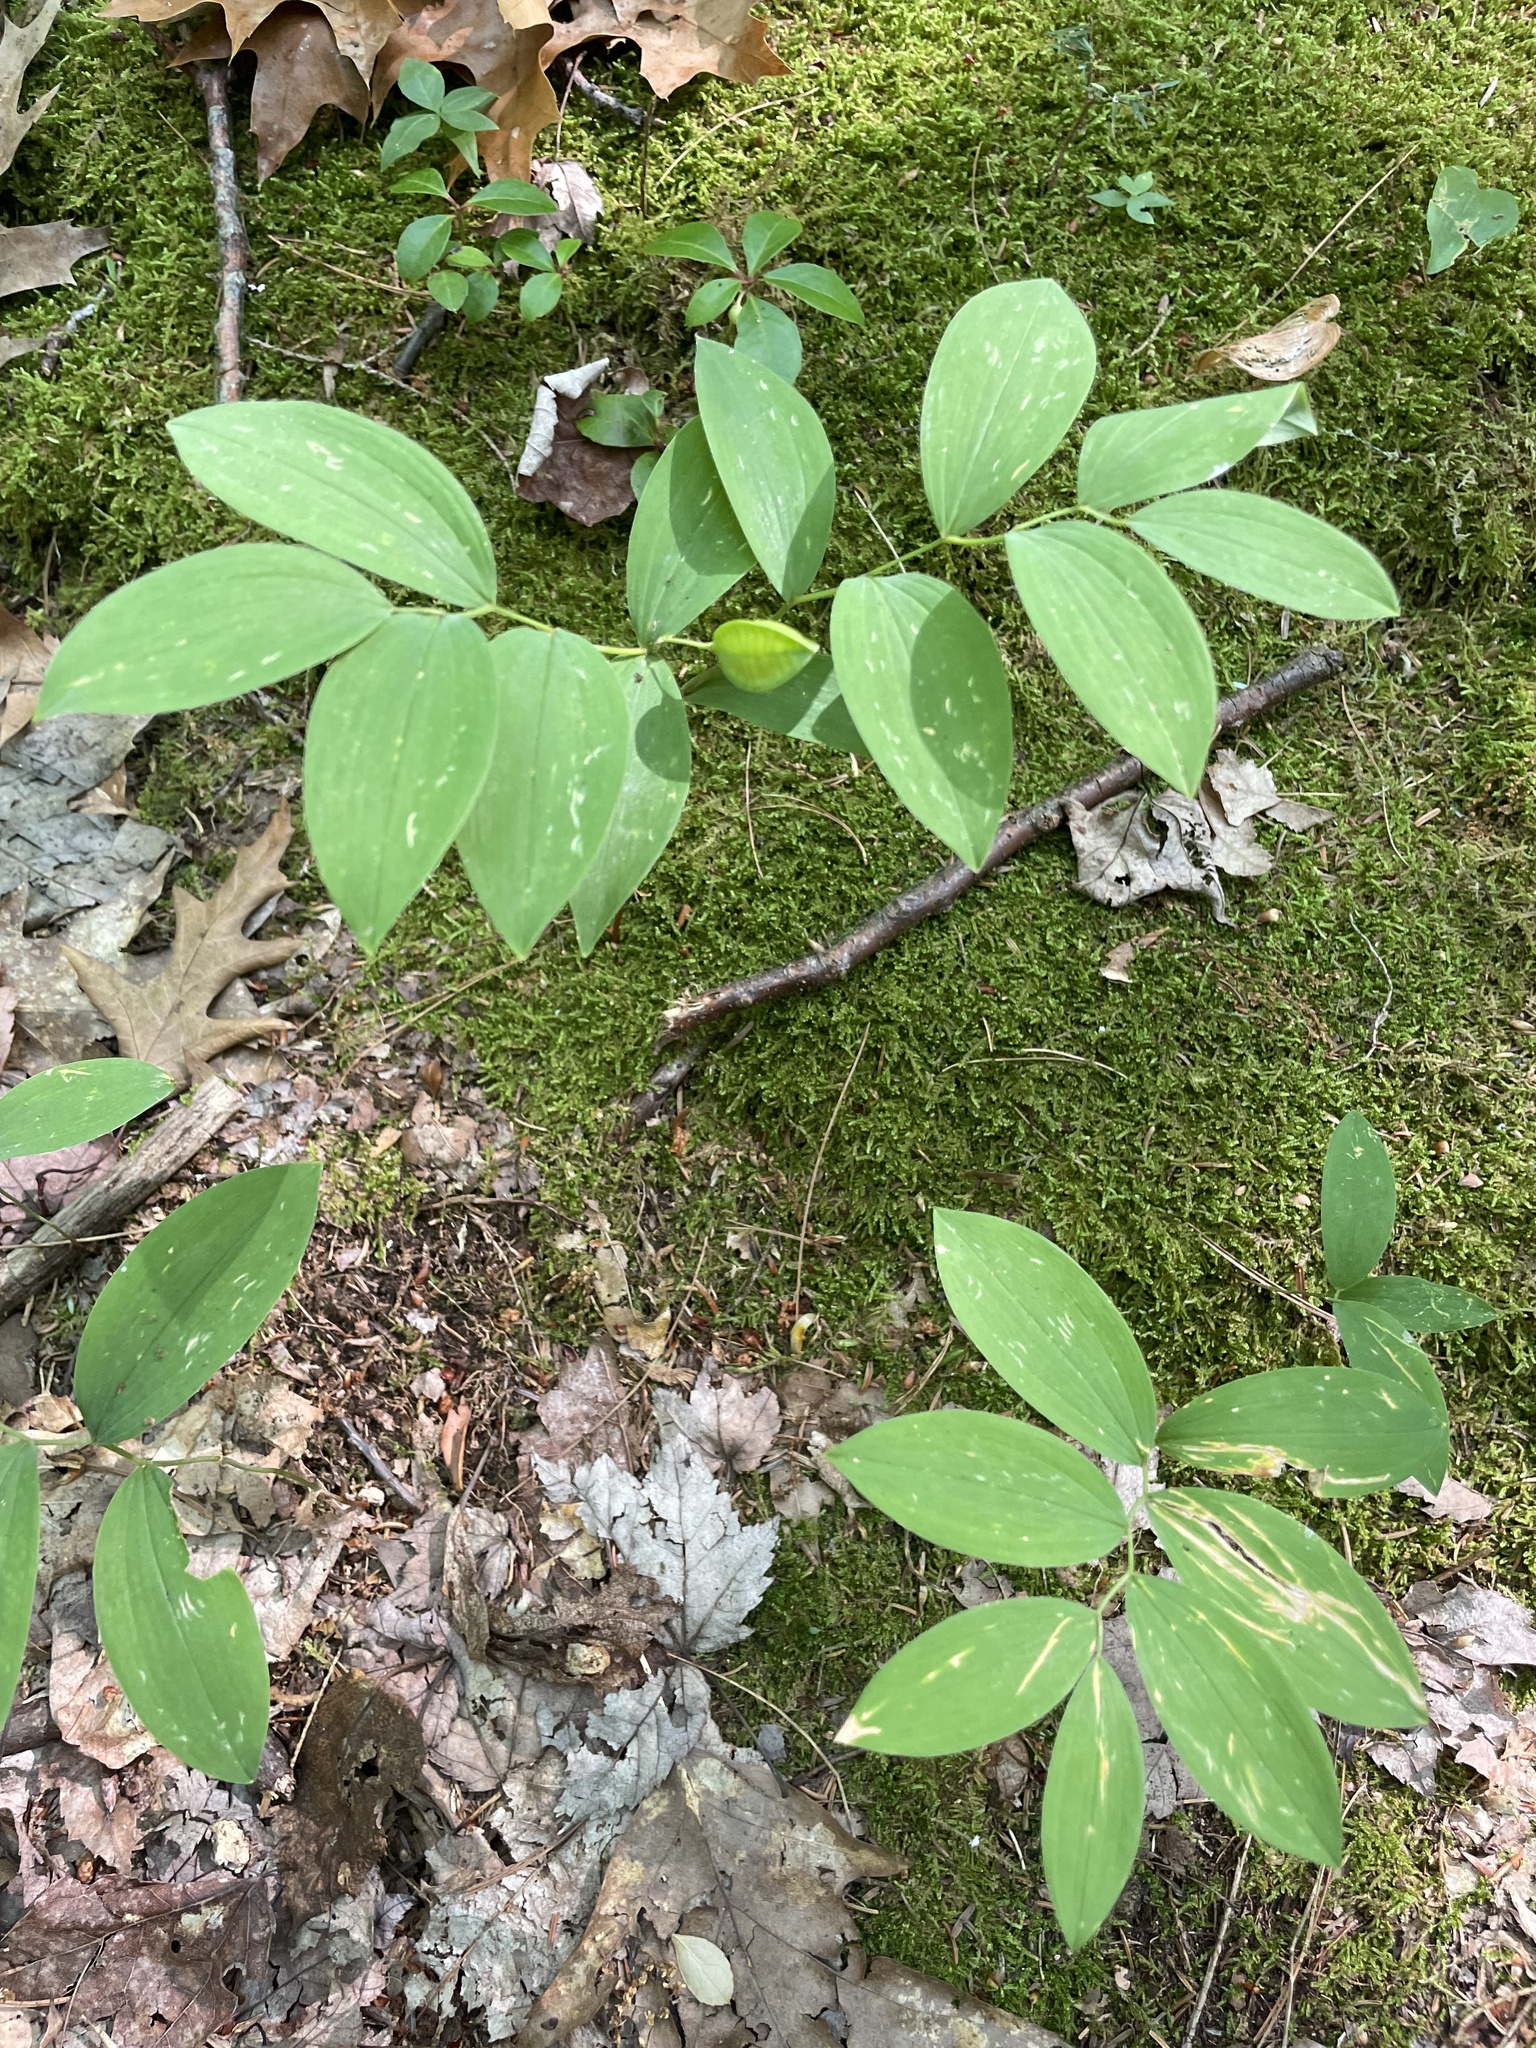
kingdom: Plantae
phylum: Tracheophyta
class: Liliopsida
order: Liliales
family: Colchicaceae
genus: Uvularia
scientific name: Uvularia sessilifolia
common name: Straw-lily
